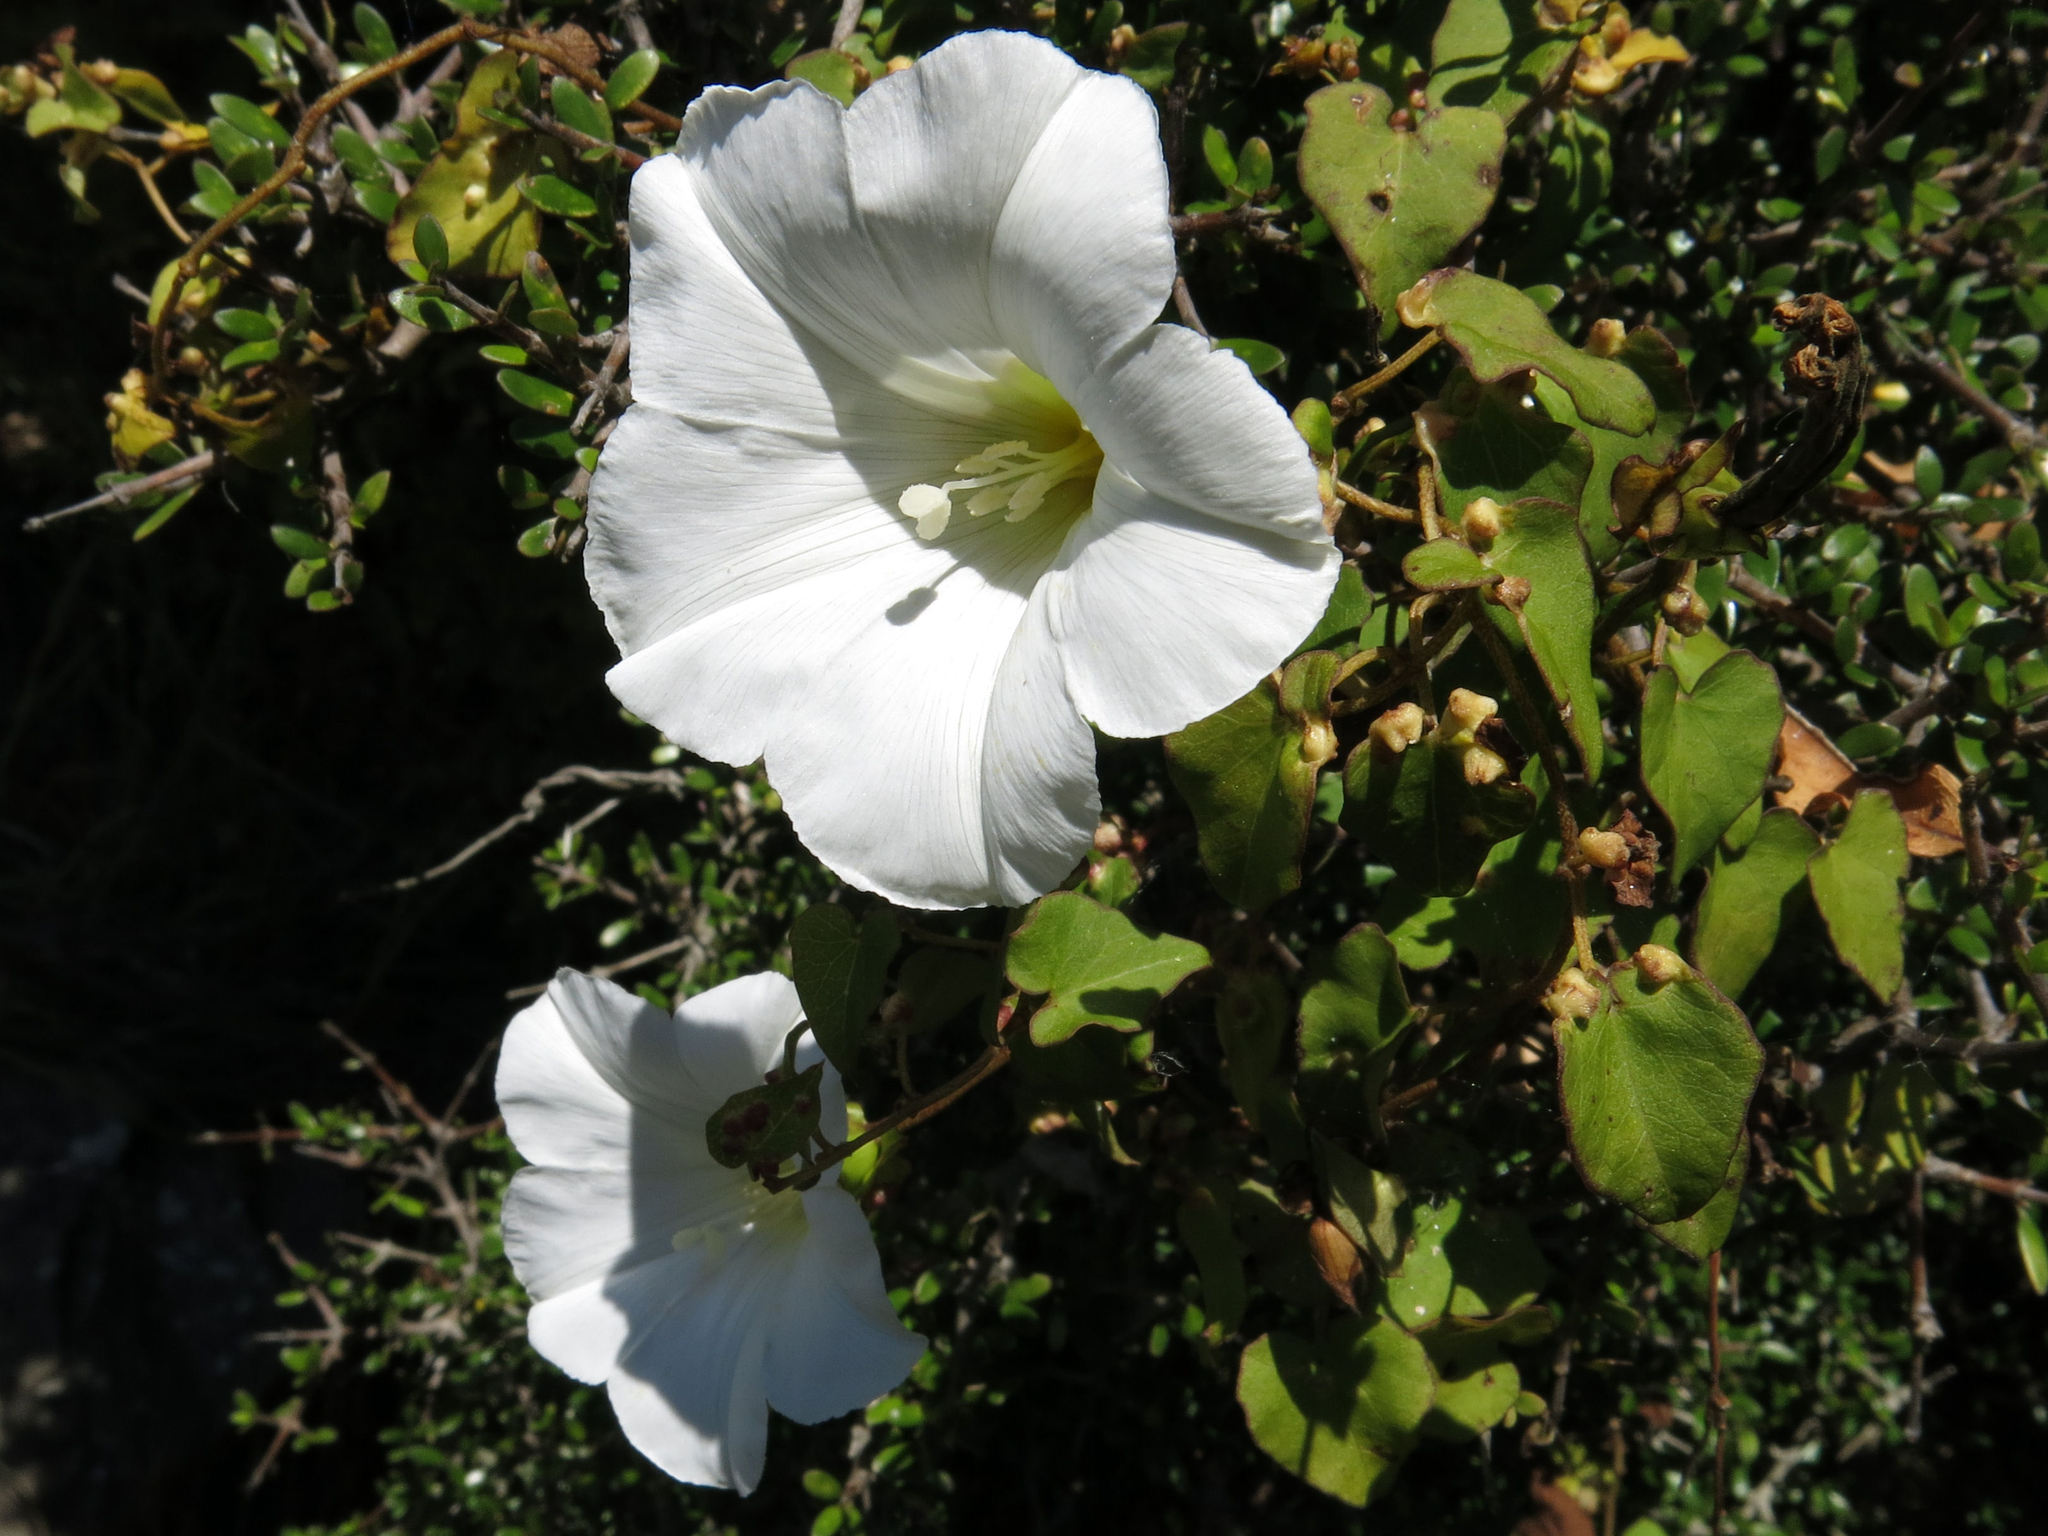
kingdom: Plantae
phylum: Tracheophyta
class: Magnoliopsida
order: Solanales
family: Convolvulaceae
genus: Calystegia
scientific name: Calystegia tuguriorum
